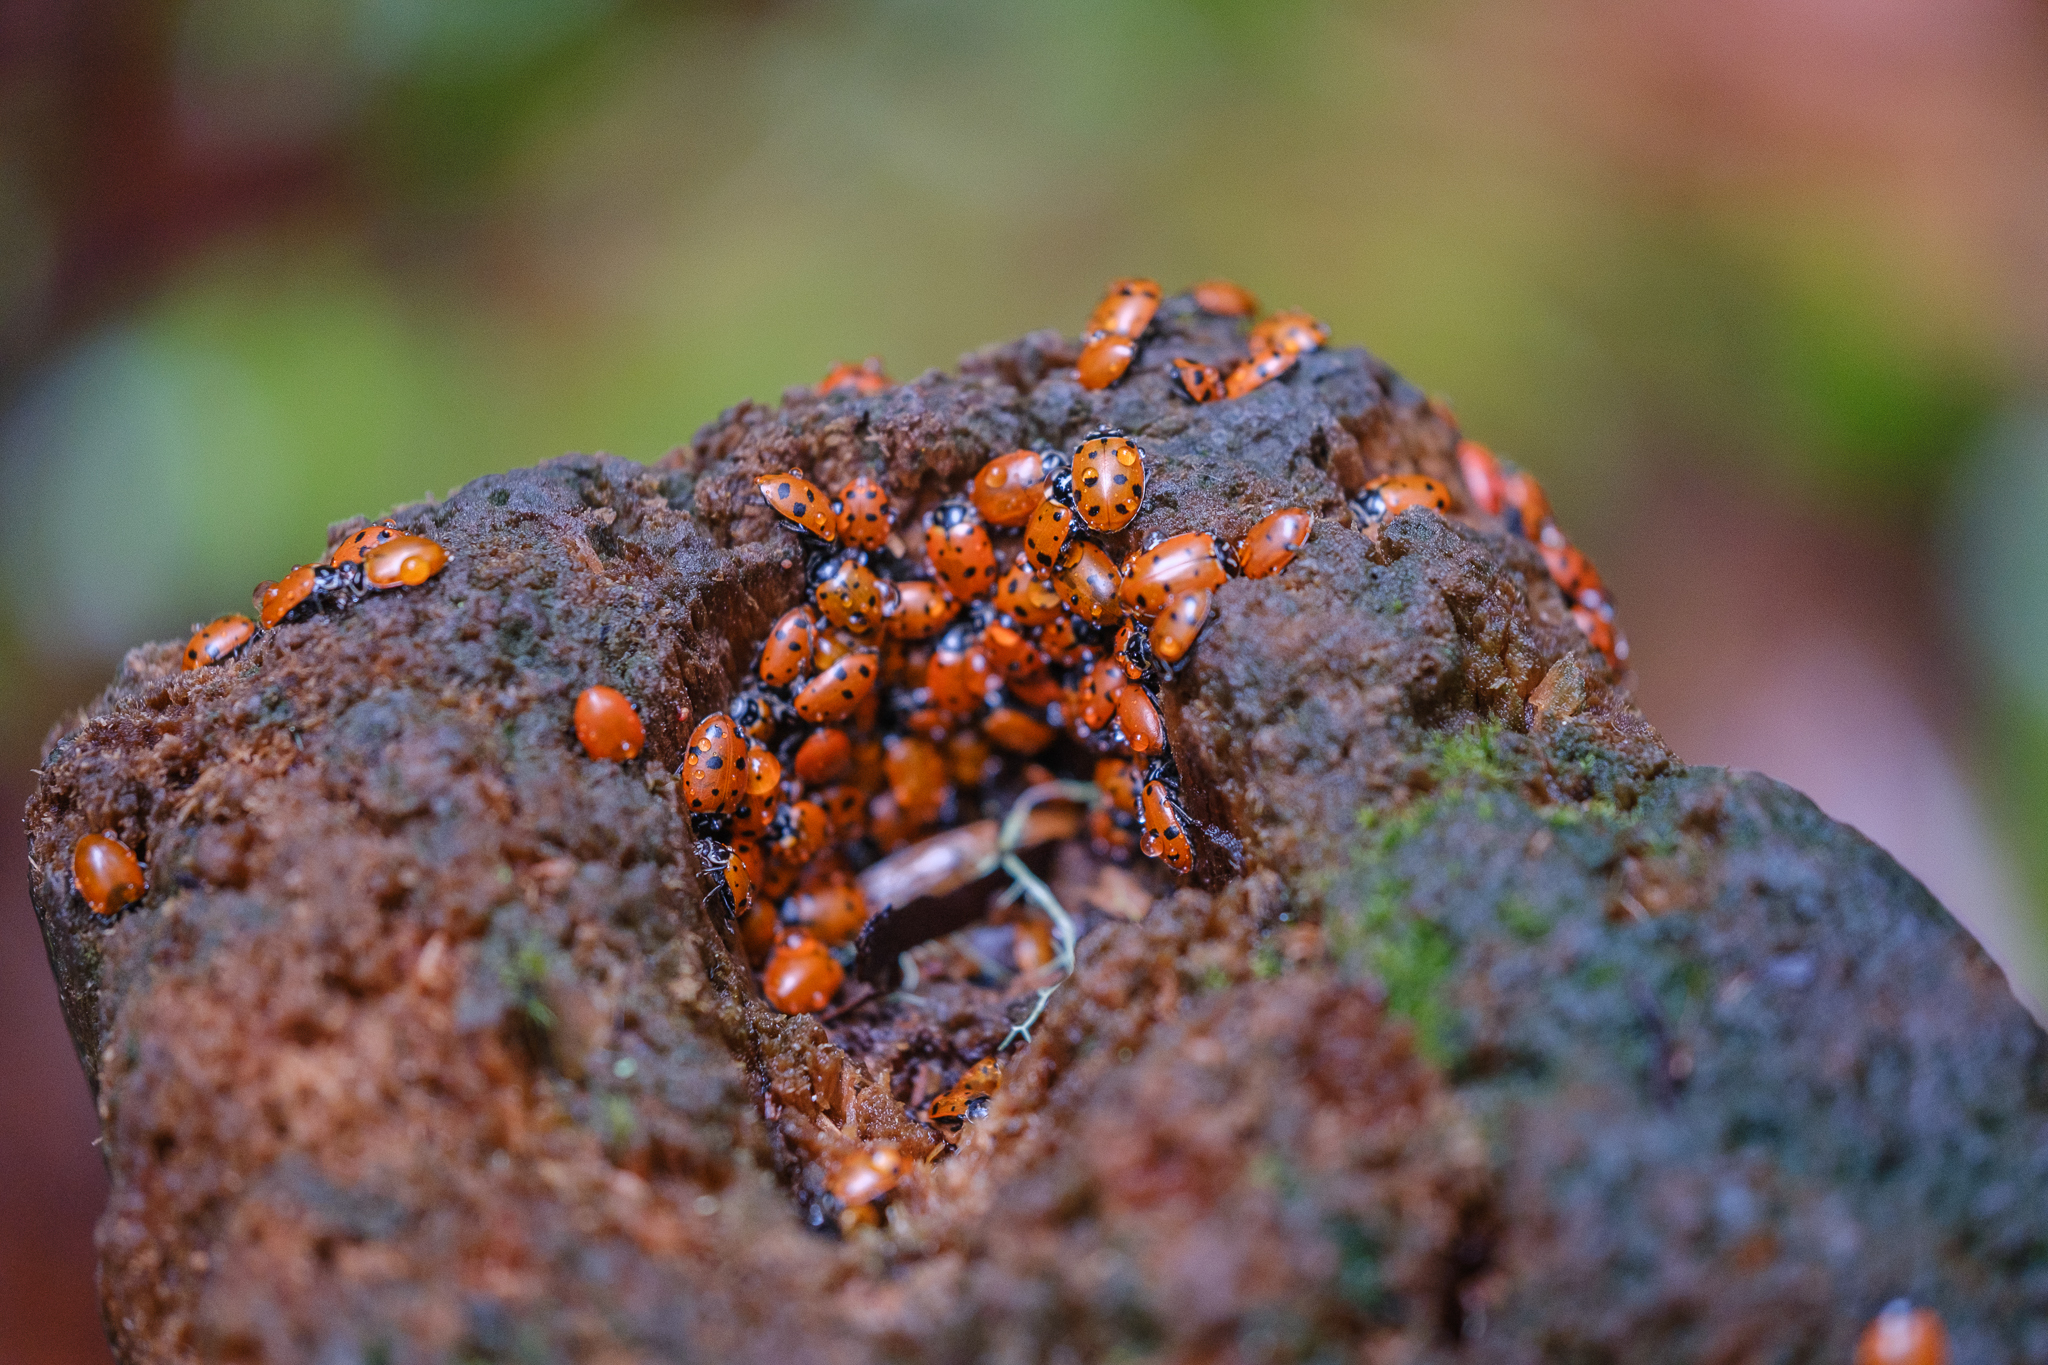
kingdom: Animalia
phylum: Arthropoda
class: Insecta
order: Coleoptera
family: Coccinellidae
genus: Hippodamia
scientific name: Hippodamia convergens
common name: Convergent lady beetle
